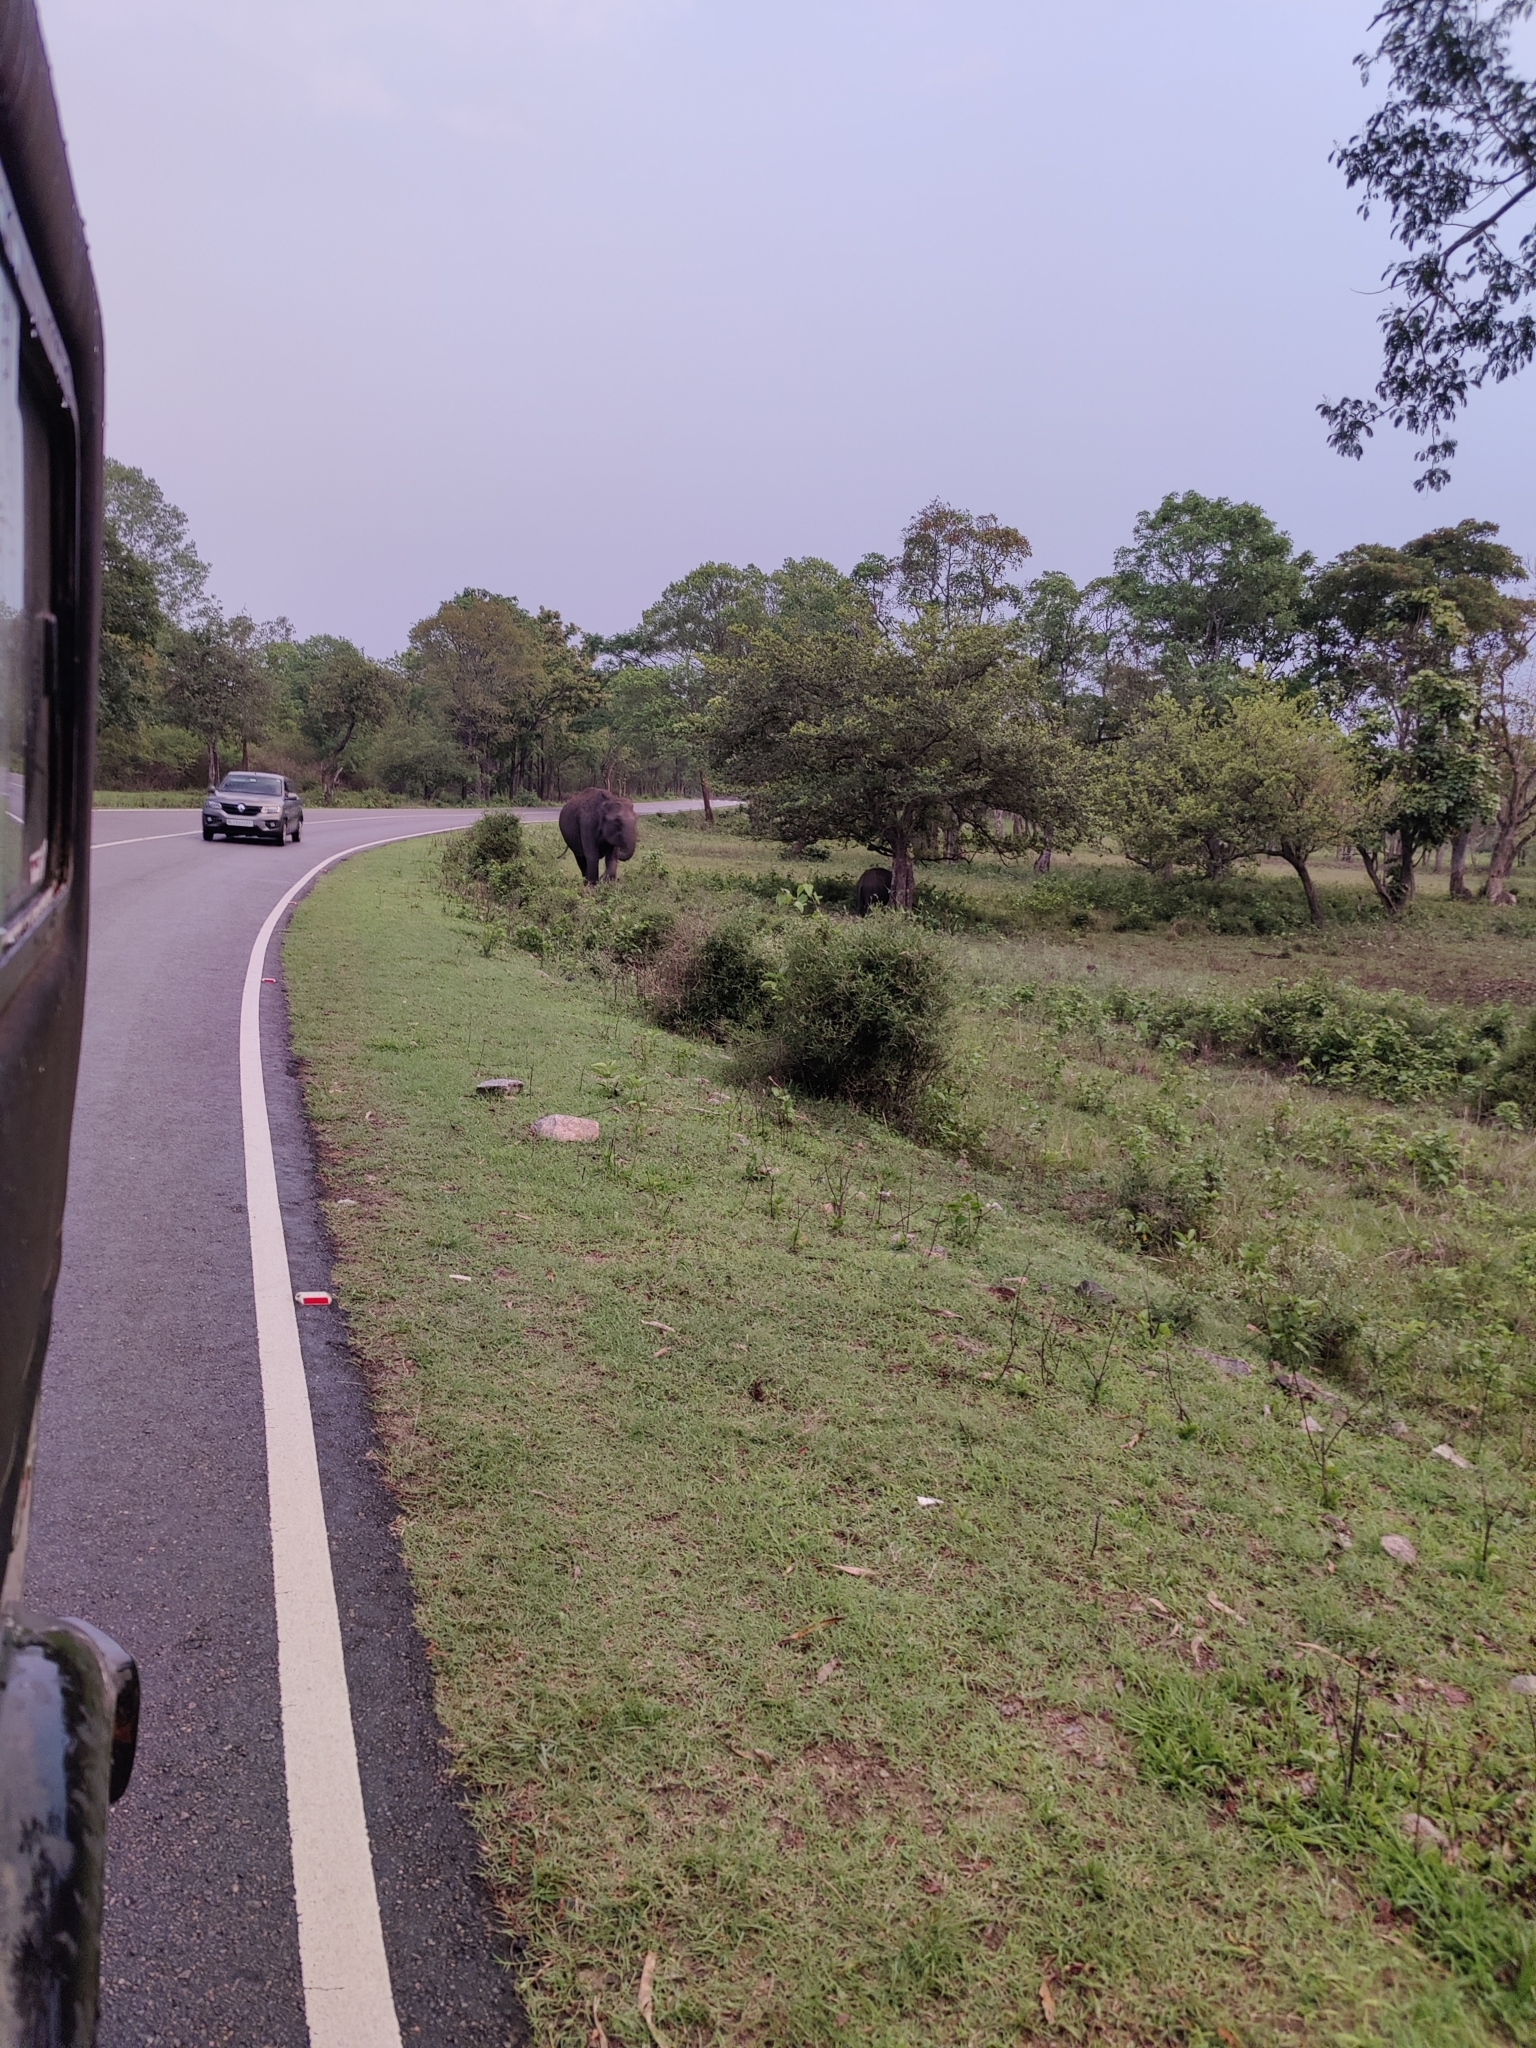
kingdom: Animalia
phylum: Chordata
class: Mammalia
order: Proboscidea
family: Elephantidae
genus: Elephas
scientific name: Elephas maximus
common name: Asian elephant
